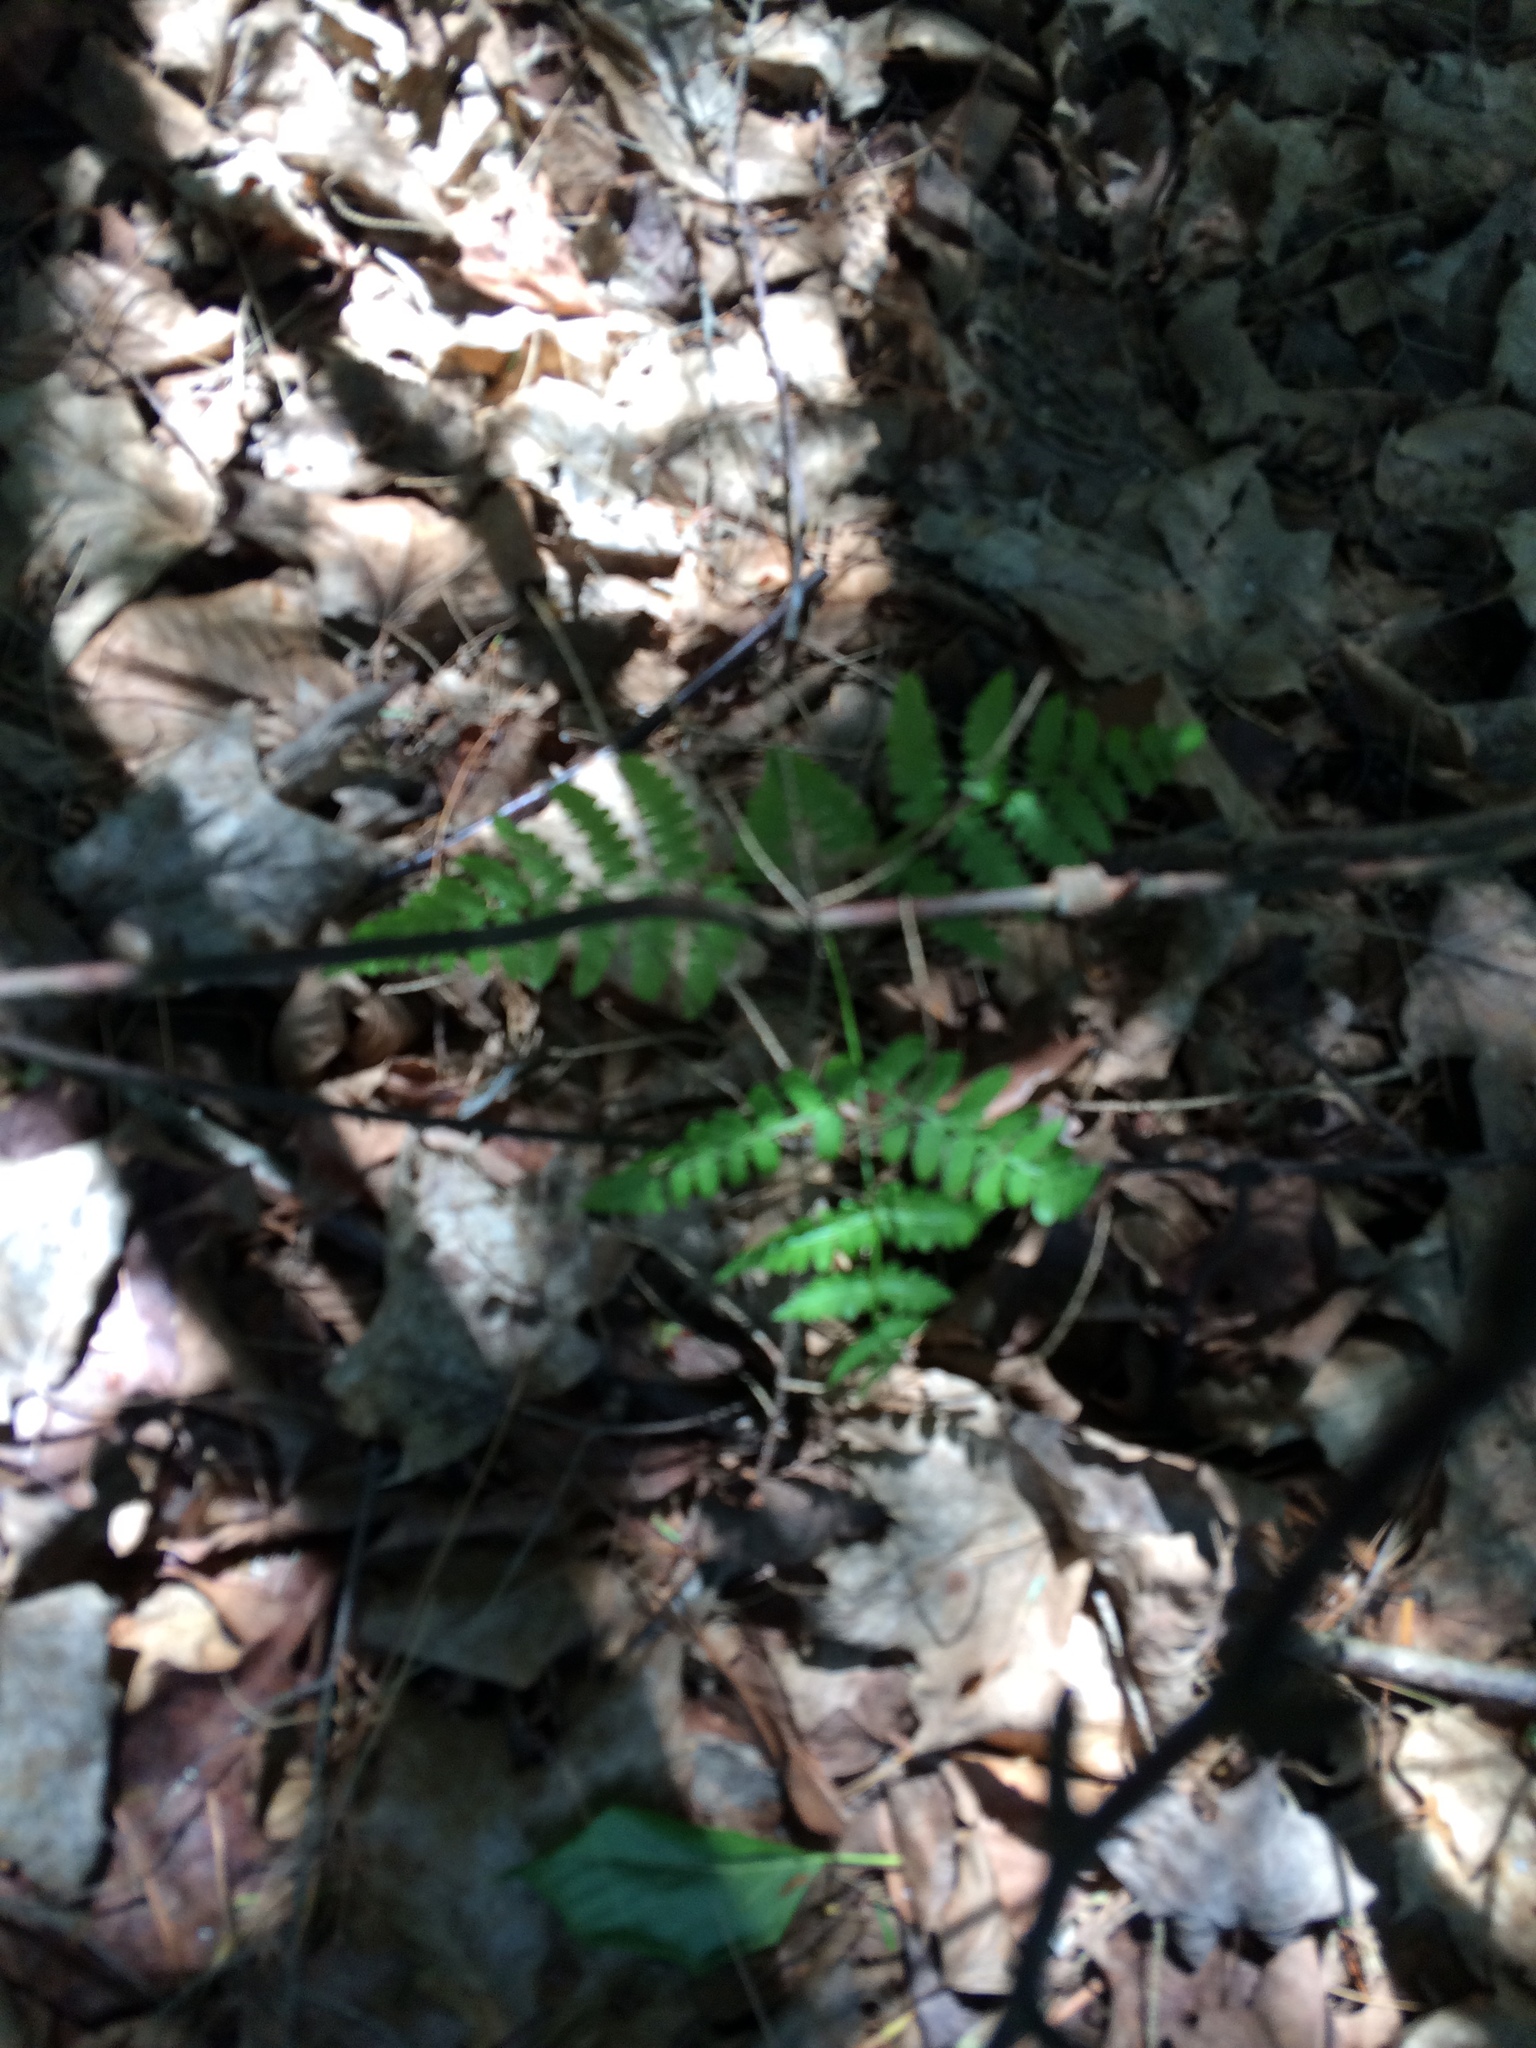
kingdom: Plantae
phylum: Tracheophyta
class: Polypodiopsida
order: Polypodiales
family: Cystopteridaceae
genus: Gymnocarpium
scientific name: Gymnocarpium dryopteris
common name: Oak fern
